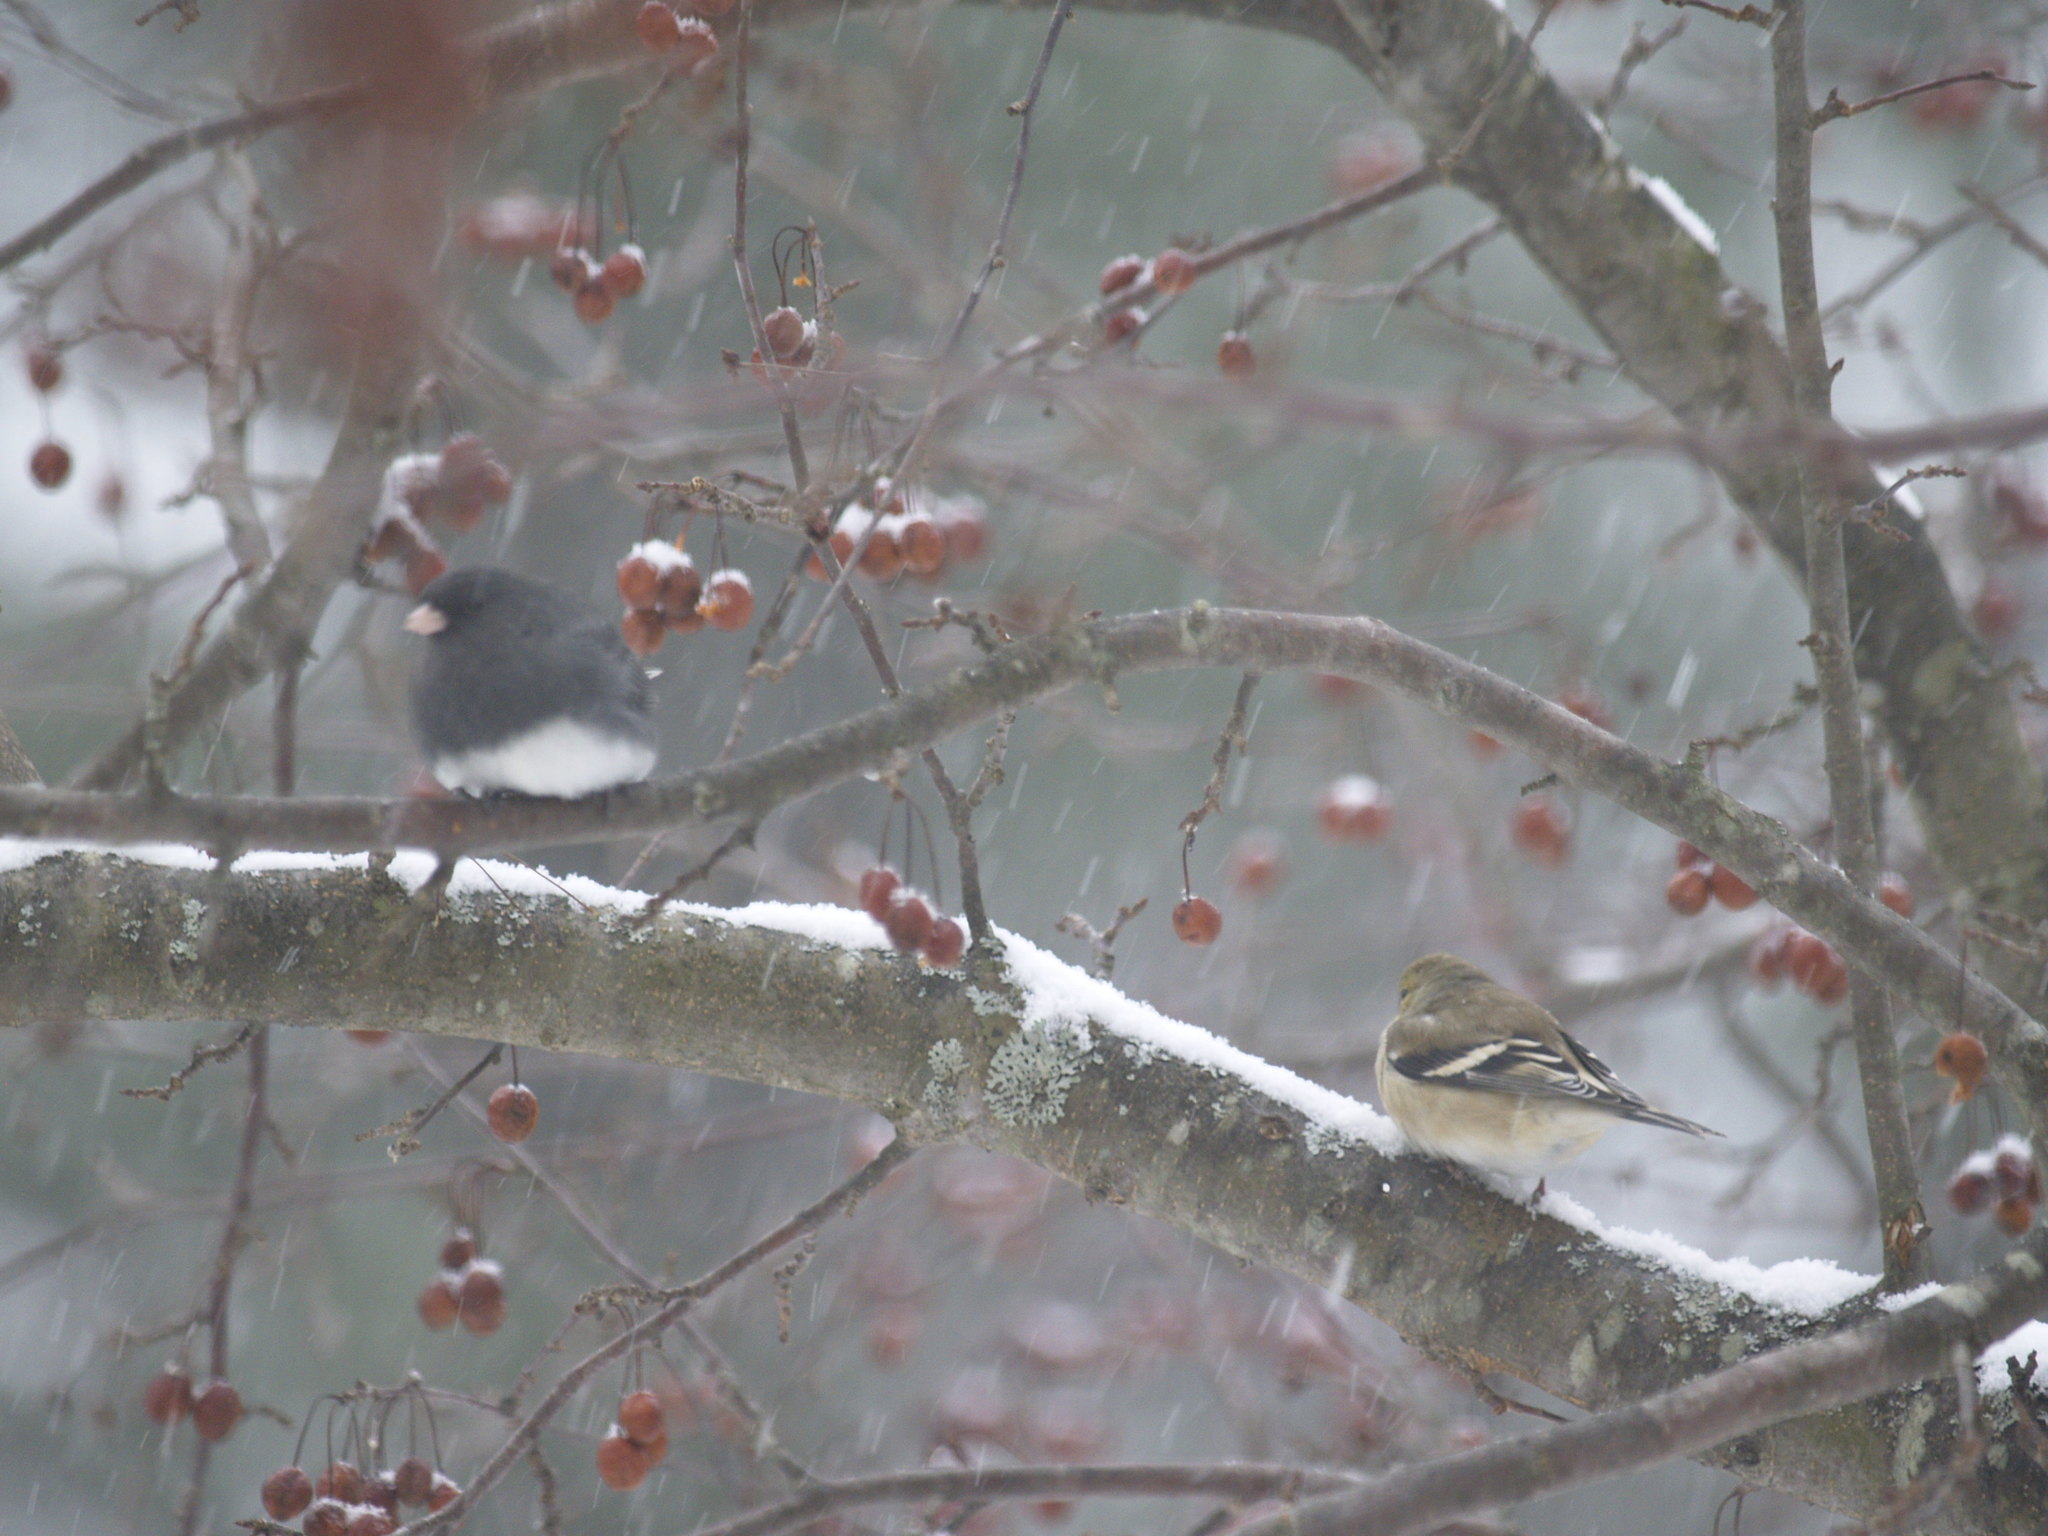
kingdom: Animalia
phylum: Chordata
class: Aves
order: Passeriformes
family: Fringillidae
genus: Spinus
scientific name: Spinus tristis
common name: American goldfinch
